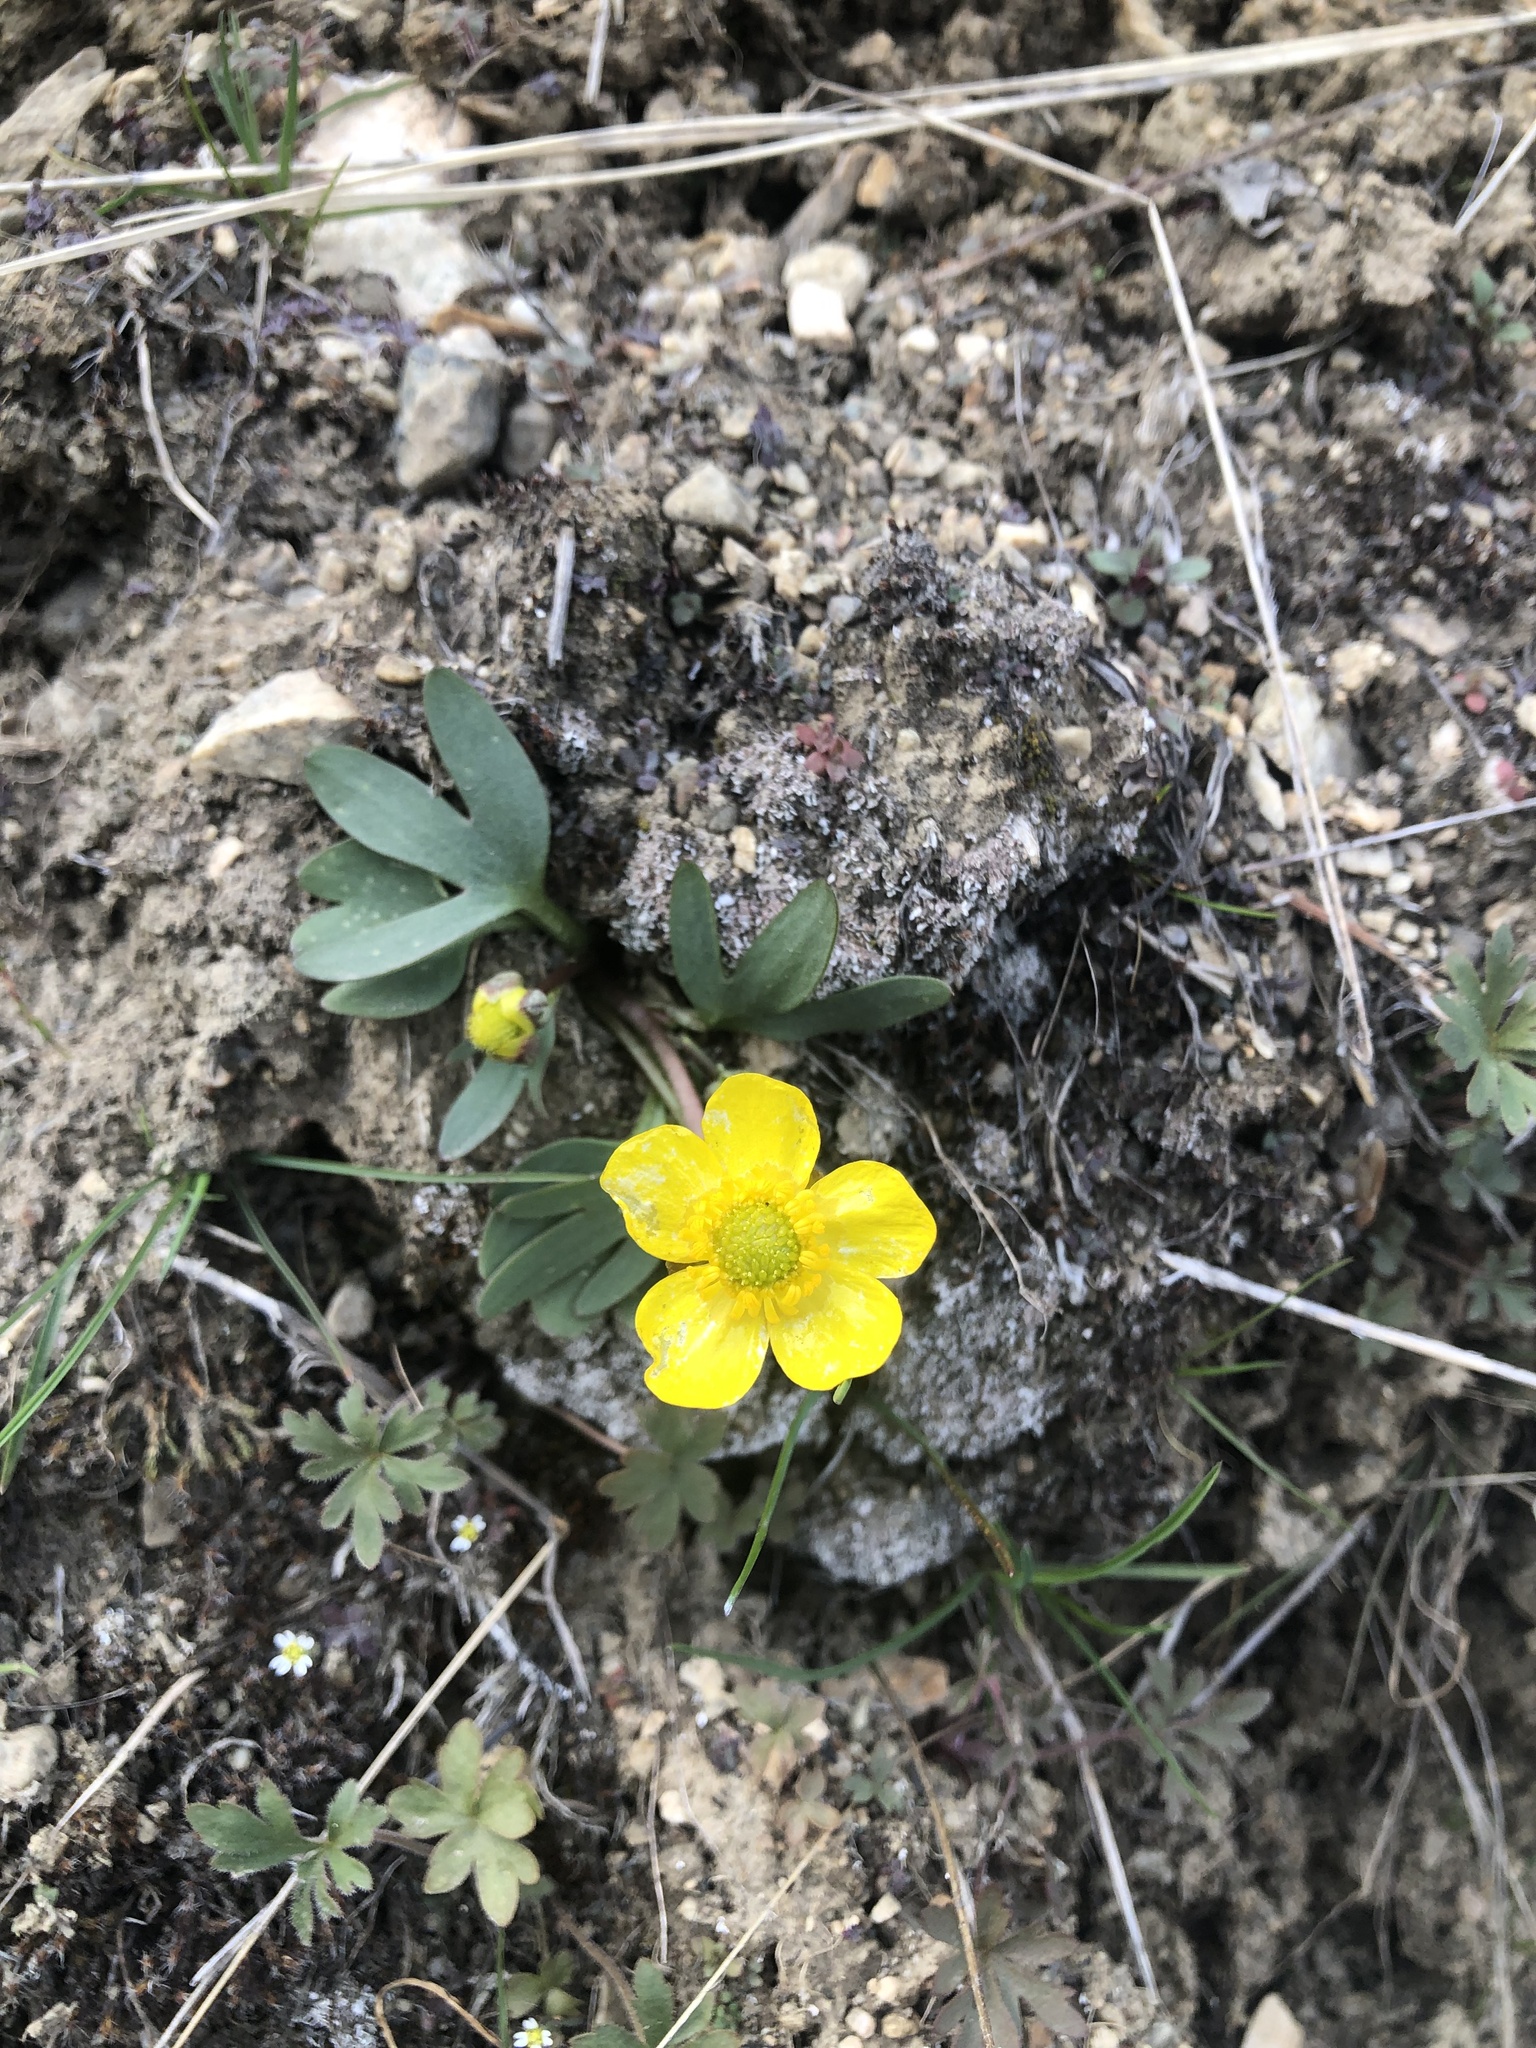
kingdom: Plantae
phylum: Tracheophyta
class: Magnoliopsida
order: Ranunculales
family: Ranunculaceae
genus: Ranunculus
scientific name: Ranunculus glaberrimus
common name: Sagebrush buttercup
